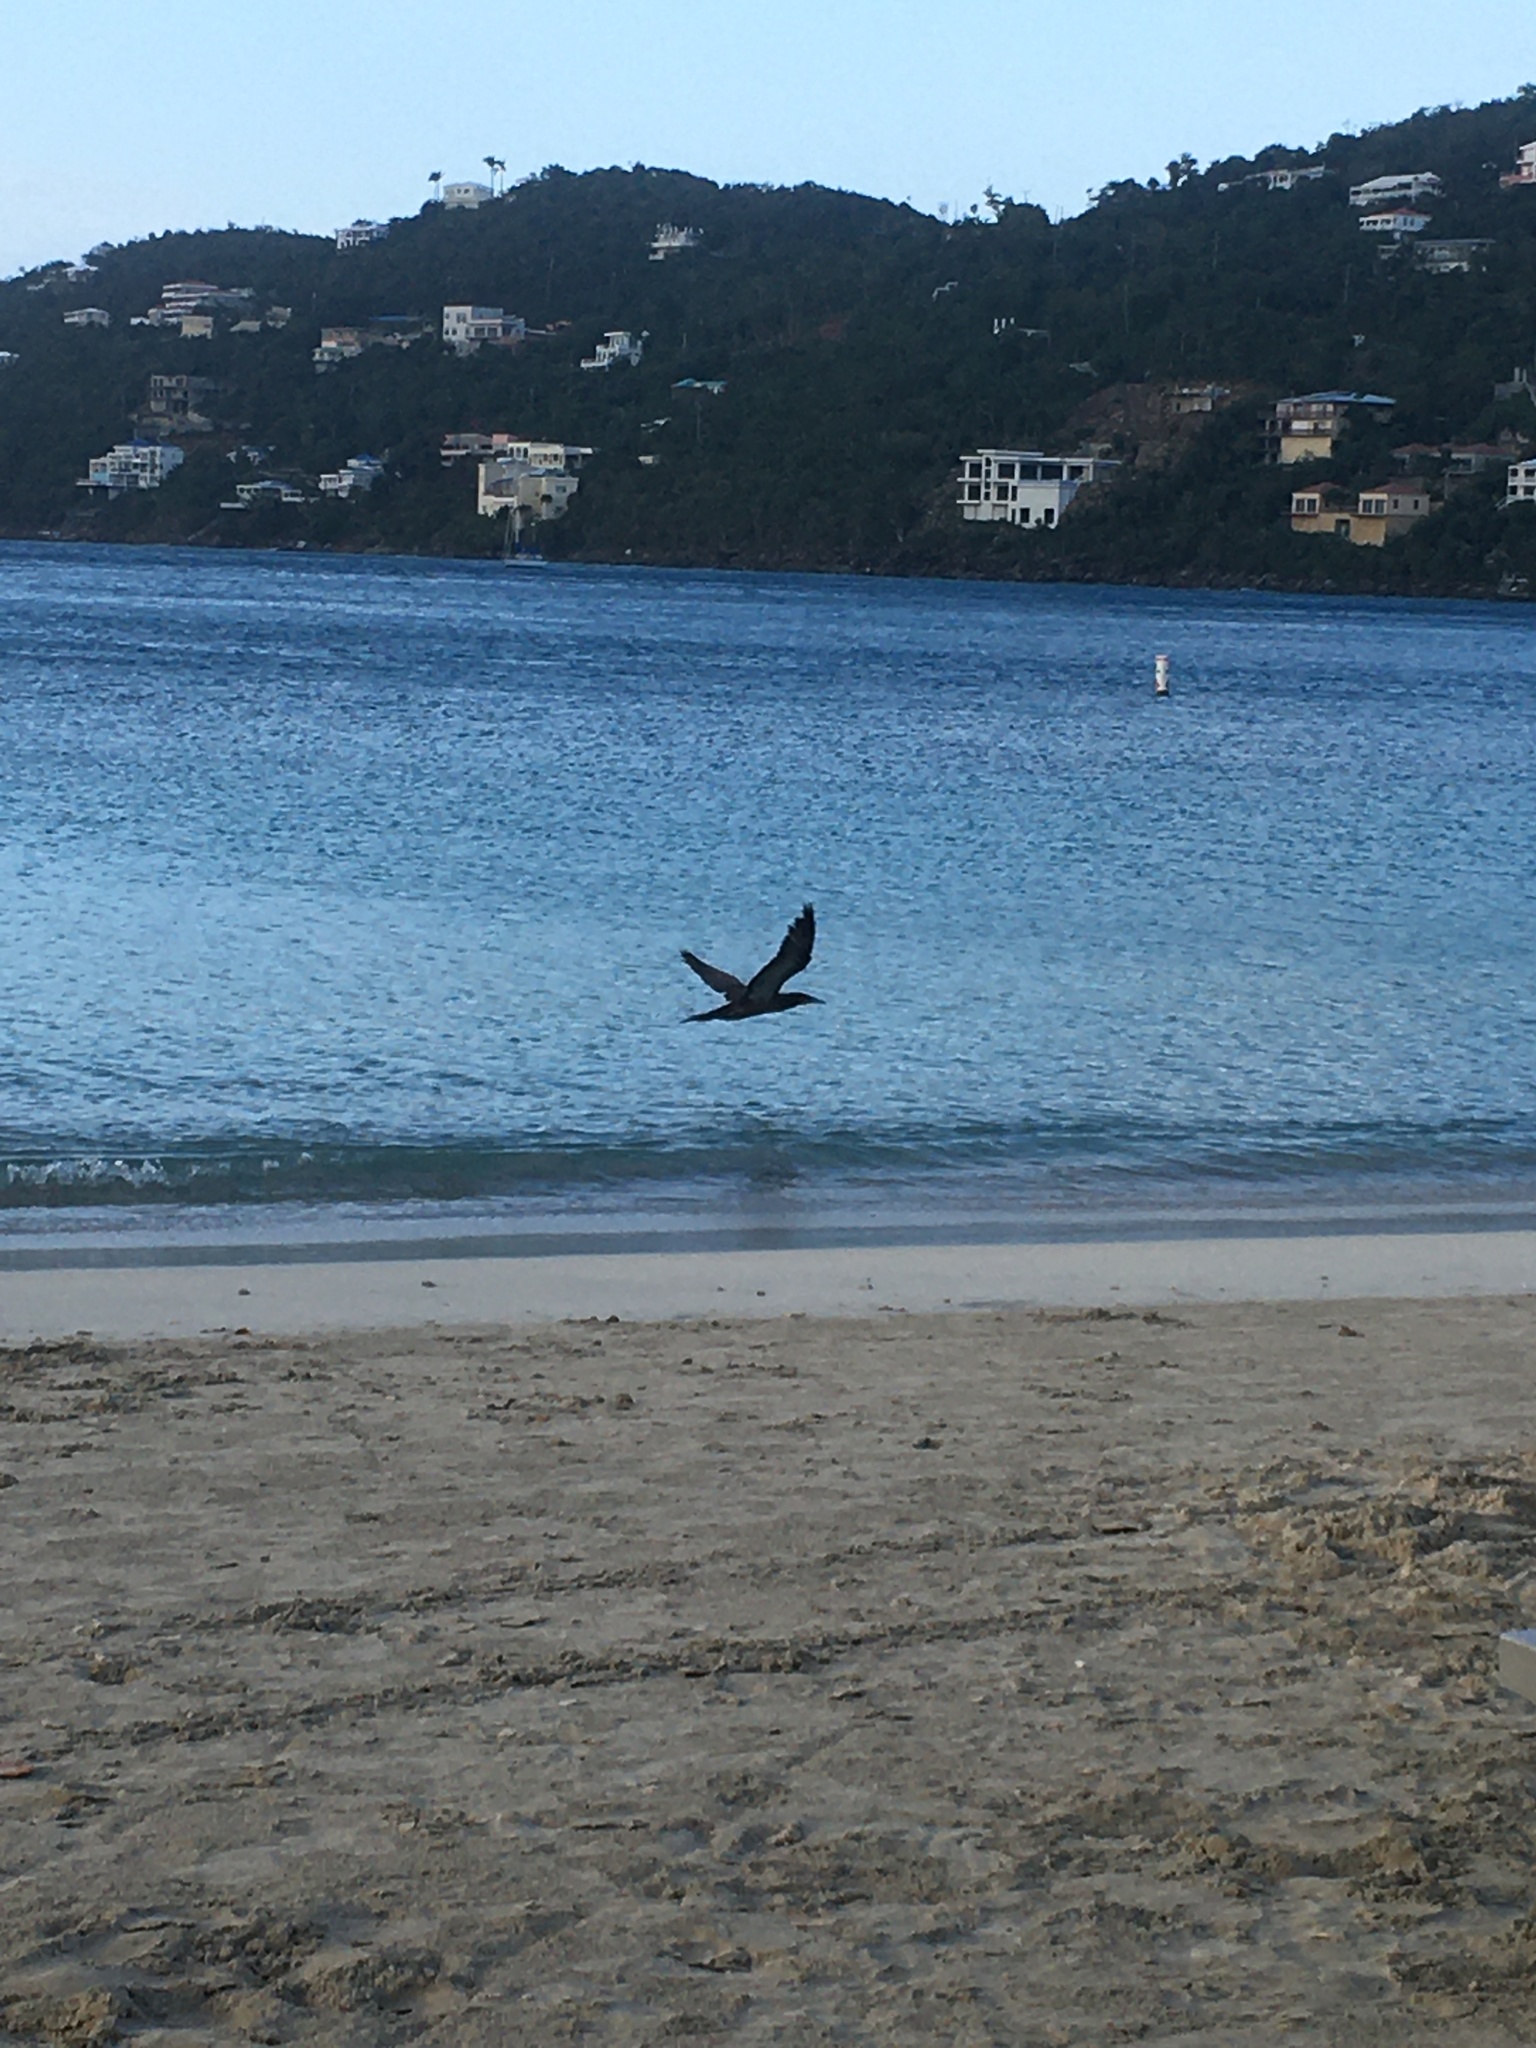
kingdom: Animalia
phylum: Chordata
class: Aves
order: Suliformes
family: Sulidae
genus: Sula
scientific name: Sula leucogaster
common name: Brown booby
